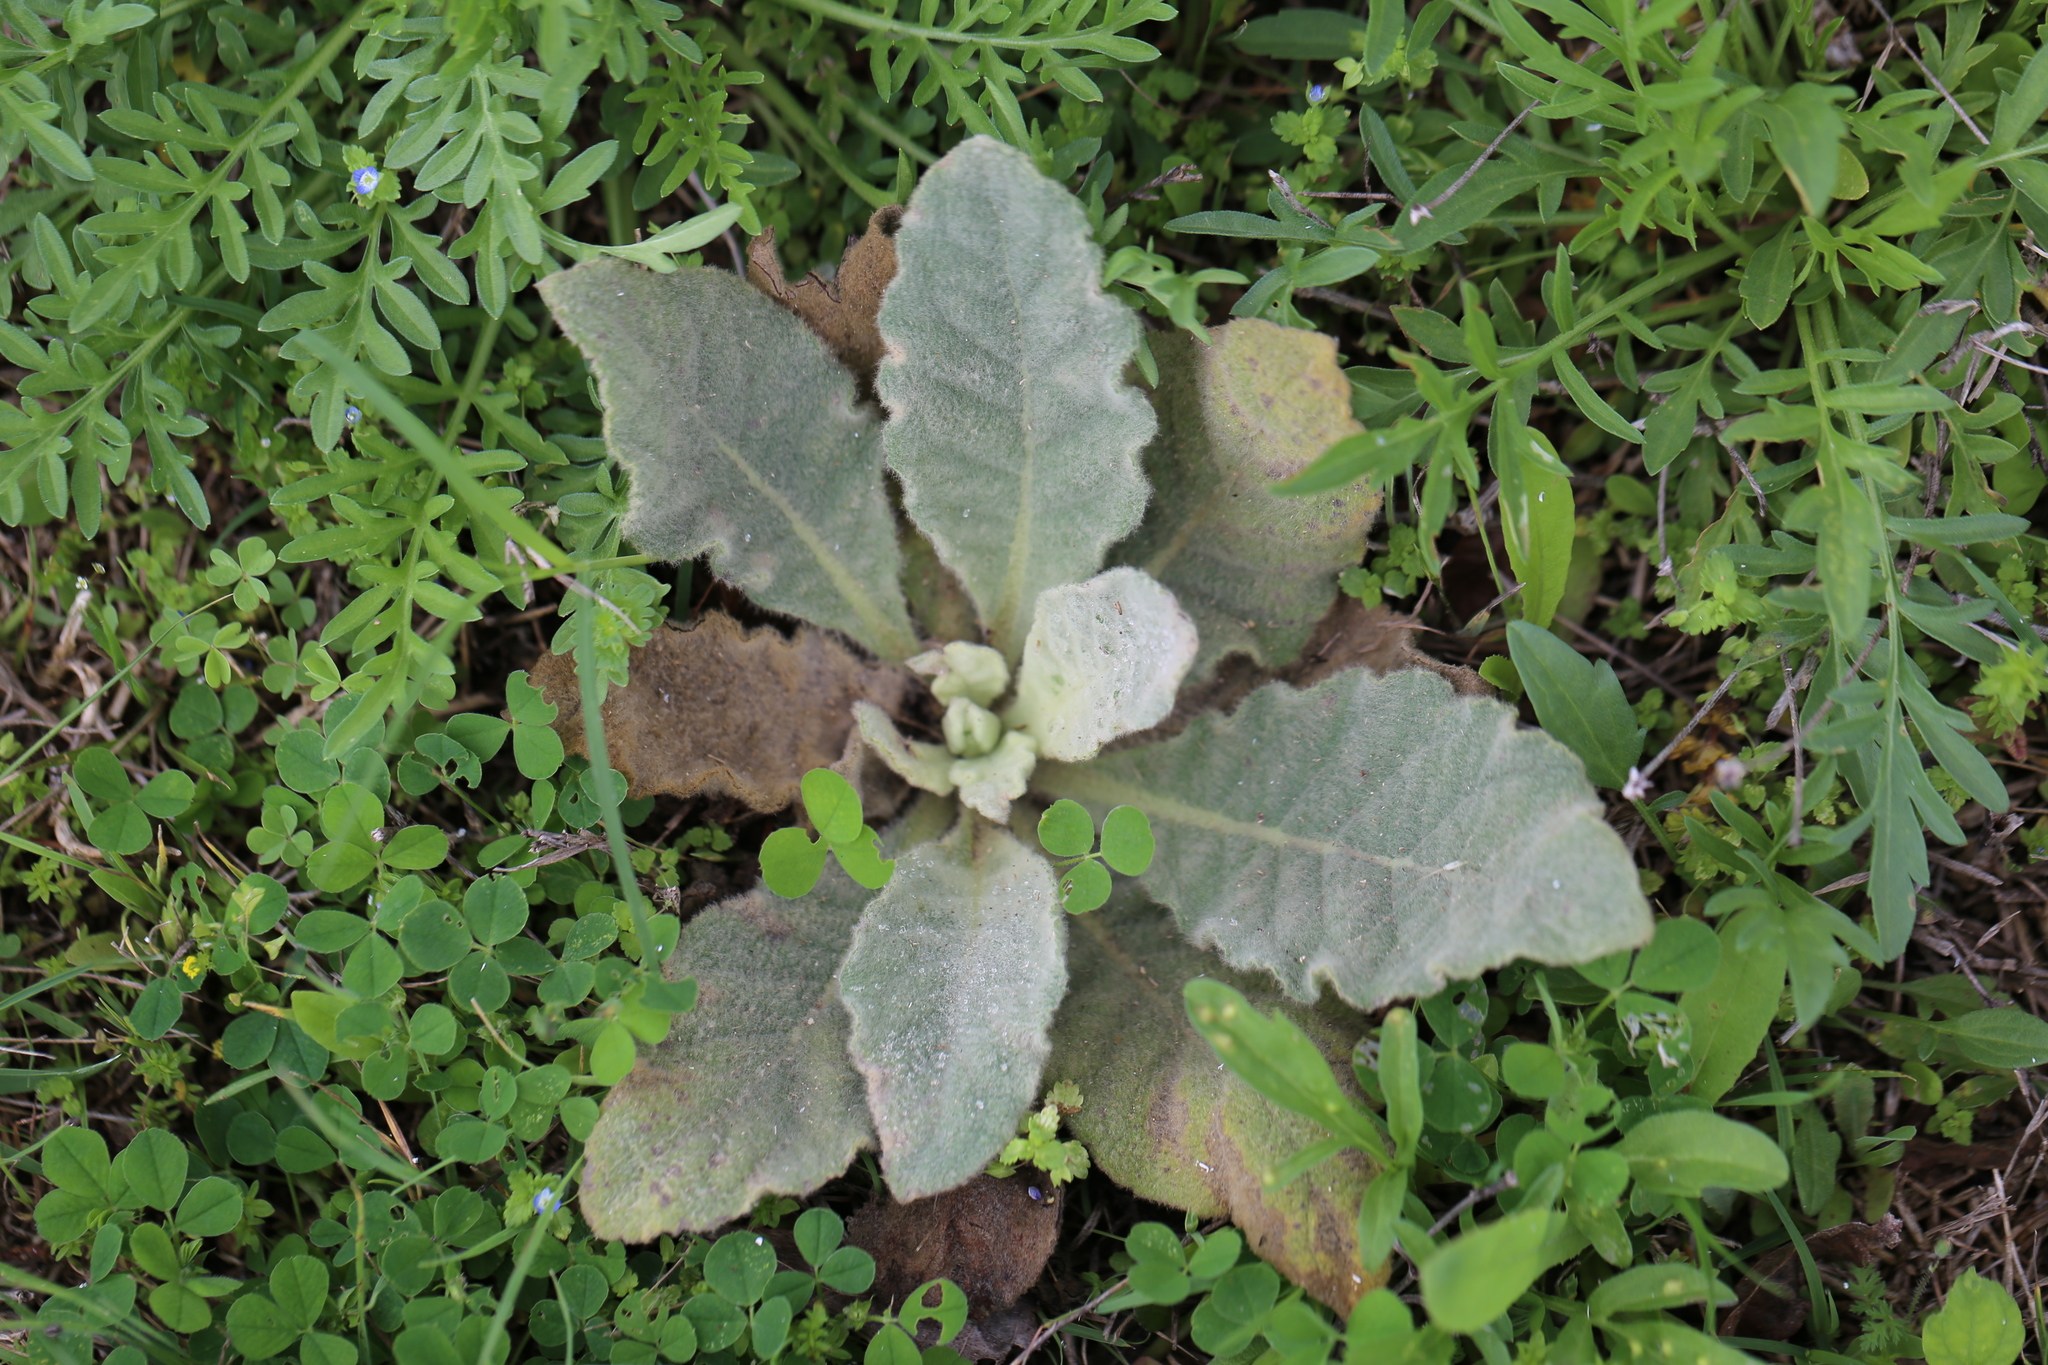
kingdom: Plantae
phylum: Tracheophyta
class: Magnoliopsida
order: Lamiales
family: Scrophulariaceae
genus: Verbascum
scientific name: Verbascum thapsus
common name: Common mullein
